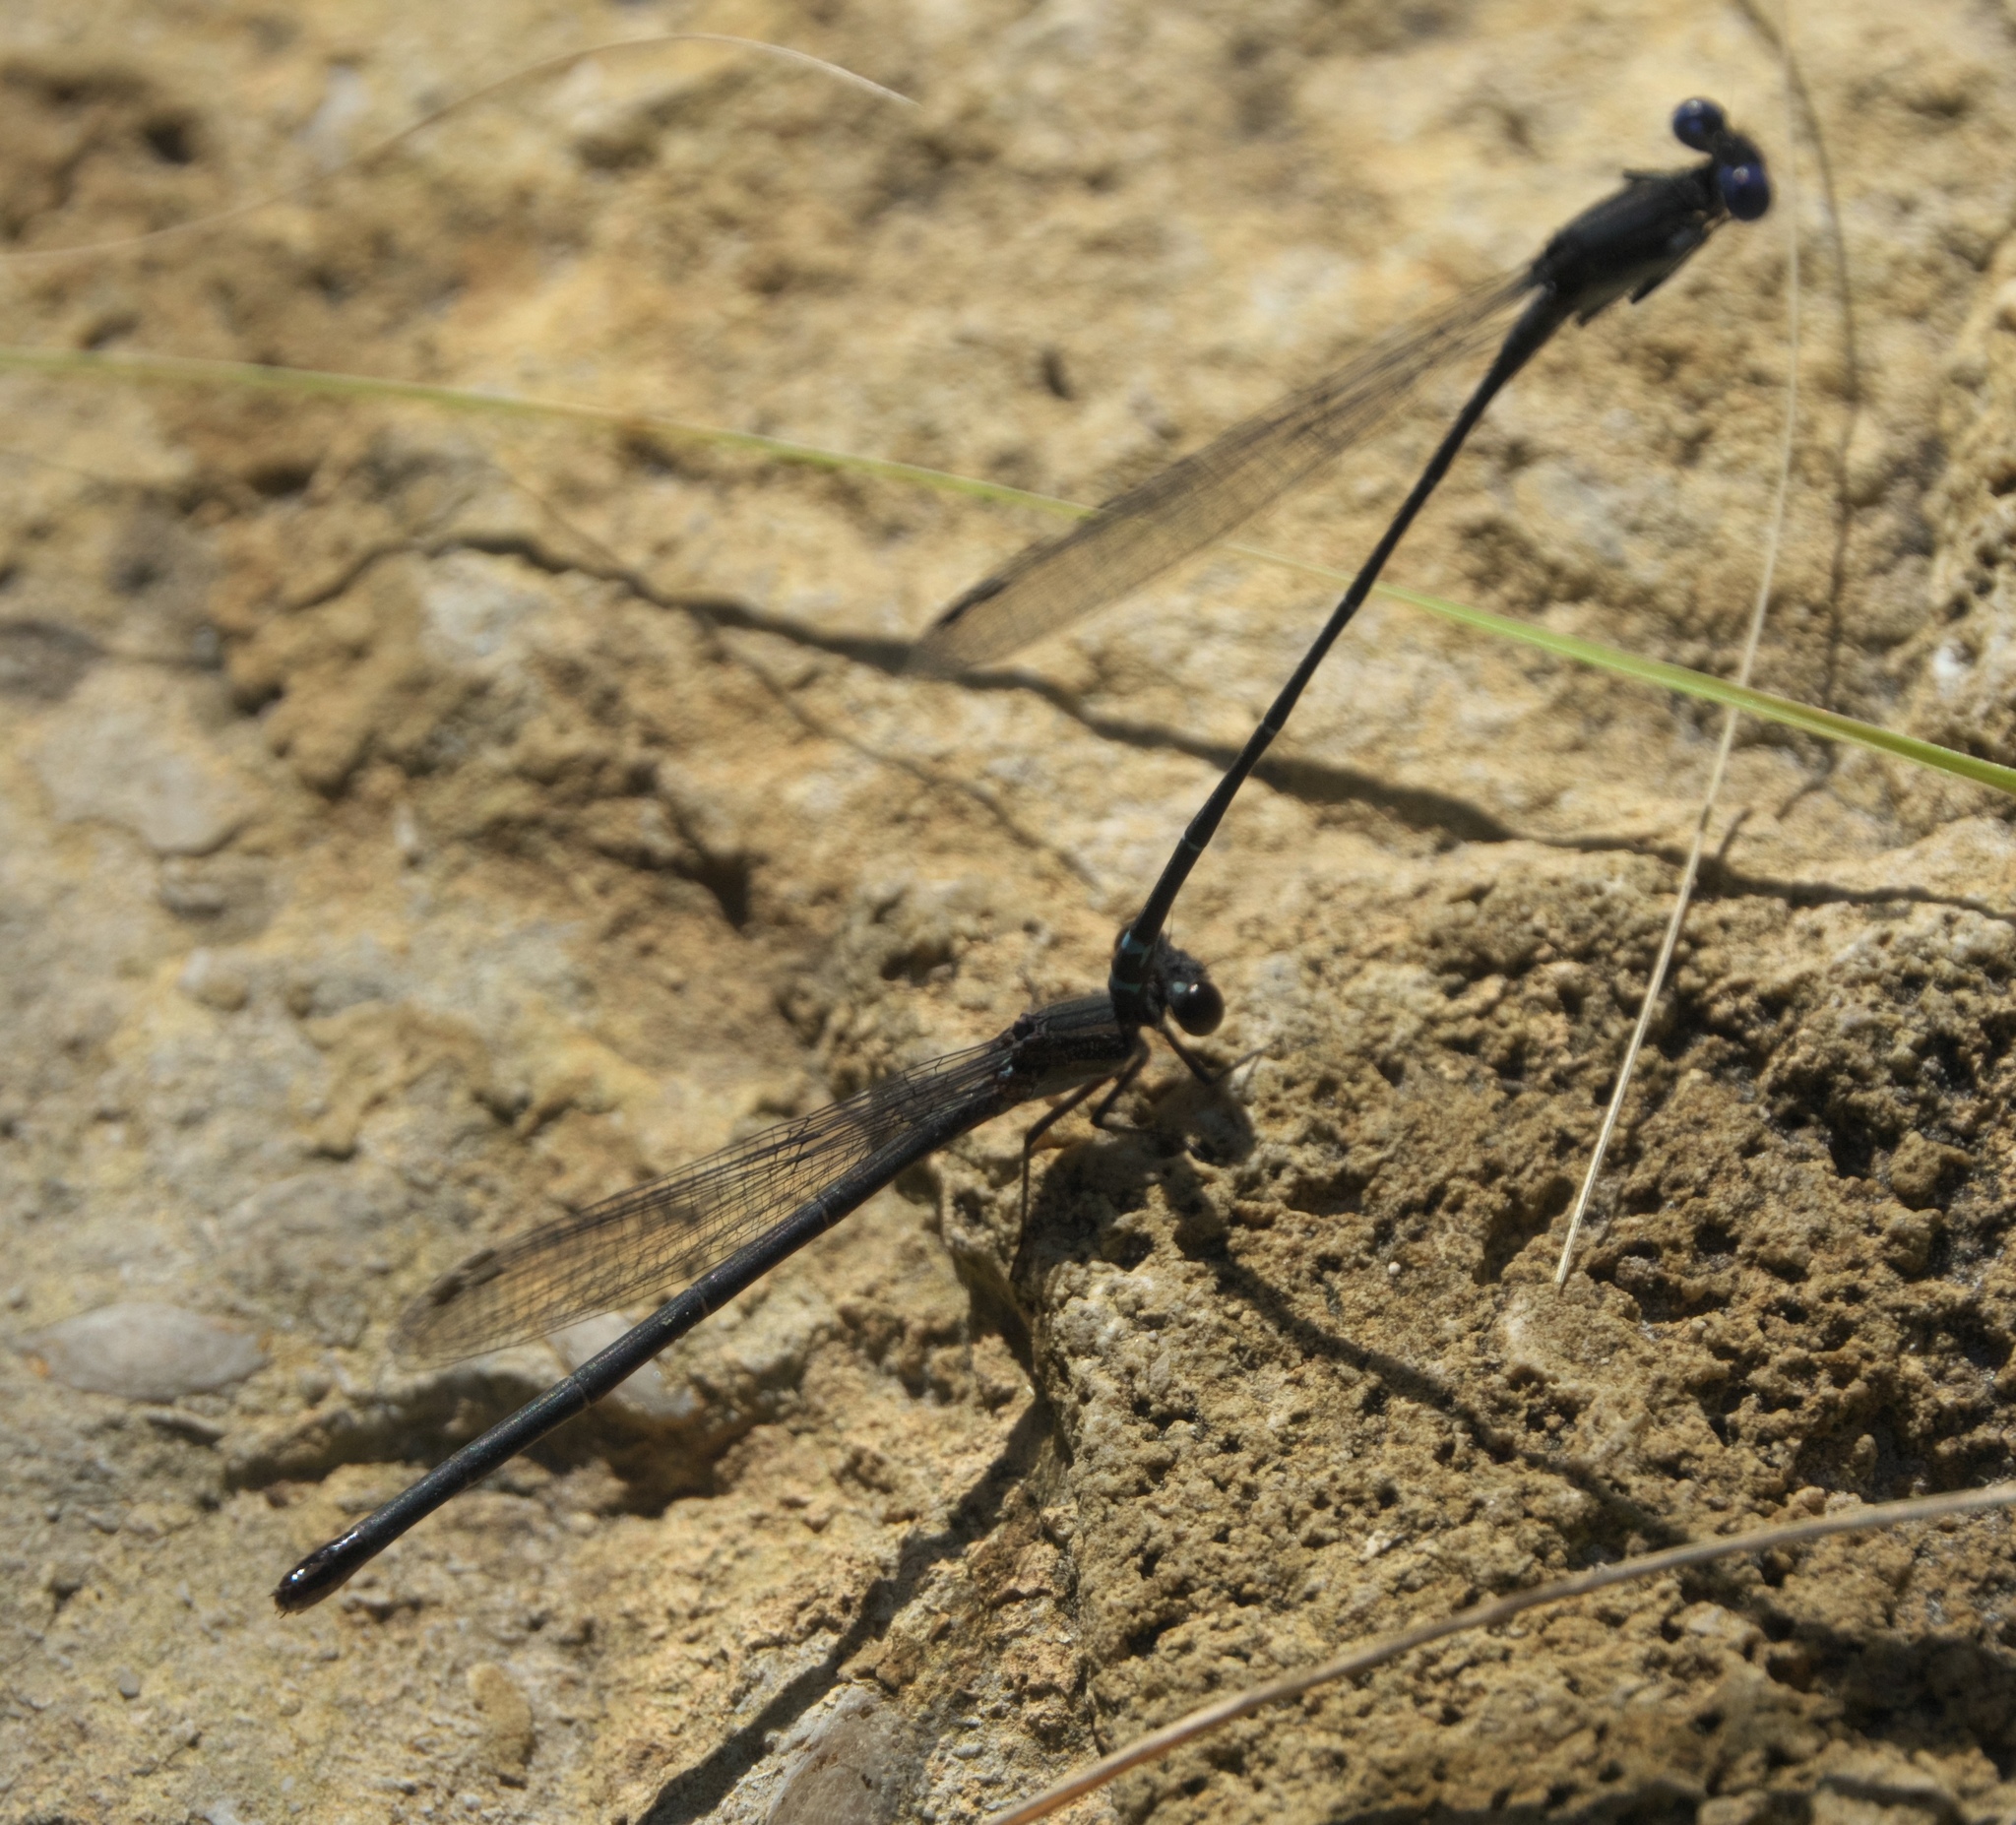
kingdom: Animalia
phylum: Arthropoda
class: Insecta
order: Odonata
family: Coenagrionidae
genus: Argia
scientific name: Argia translata
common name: Dusky dancer
